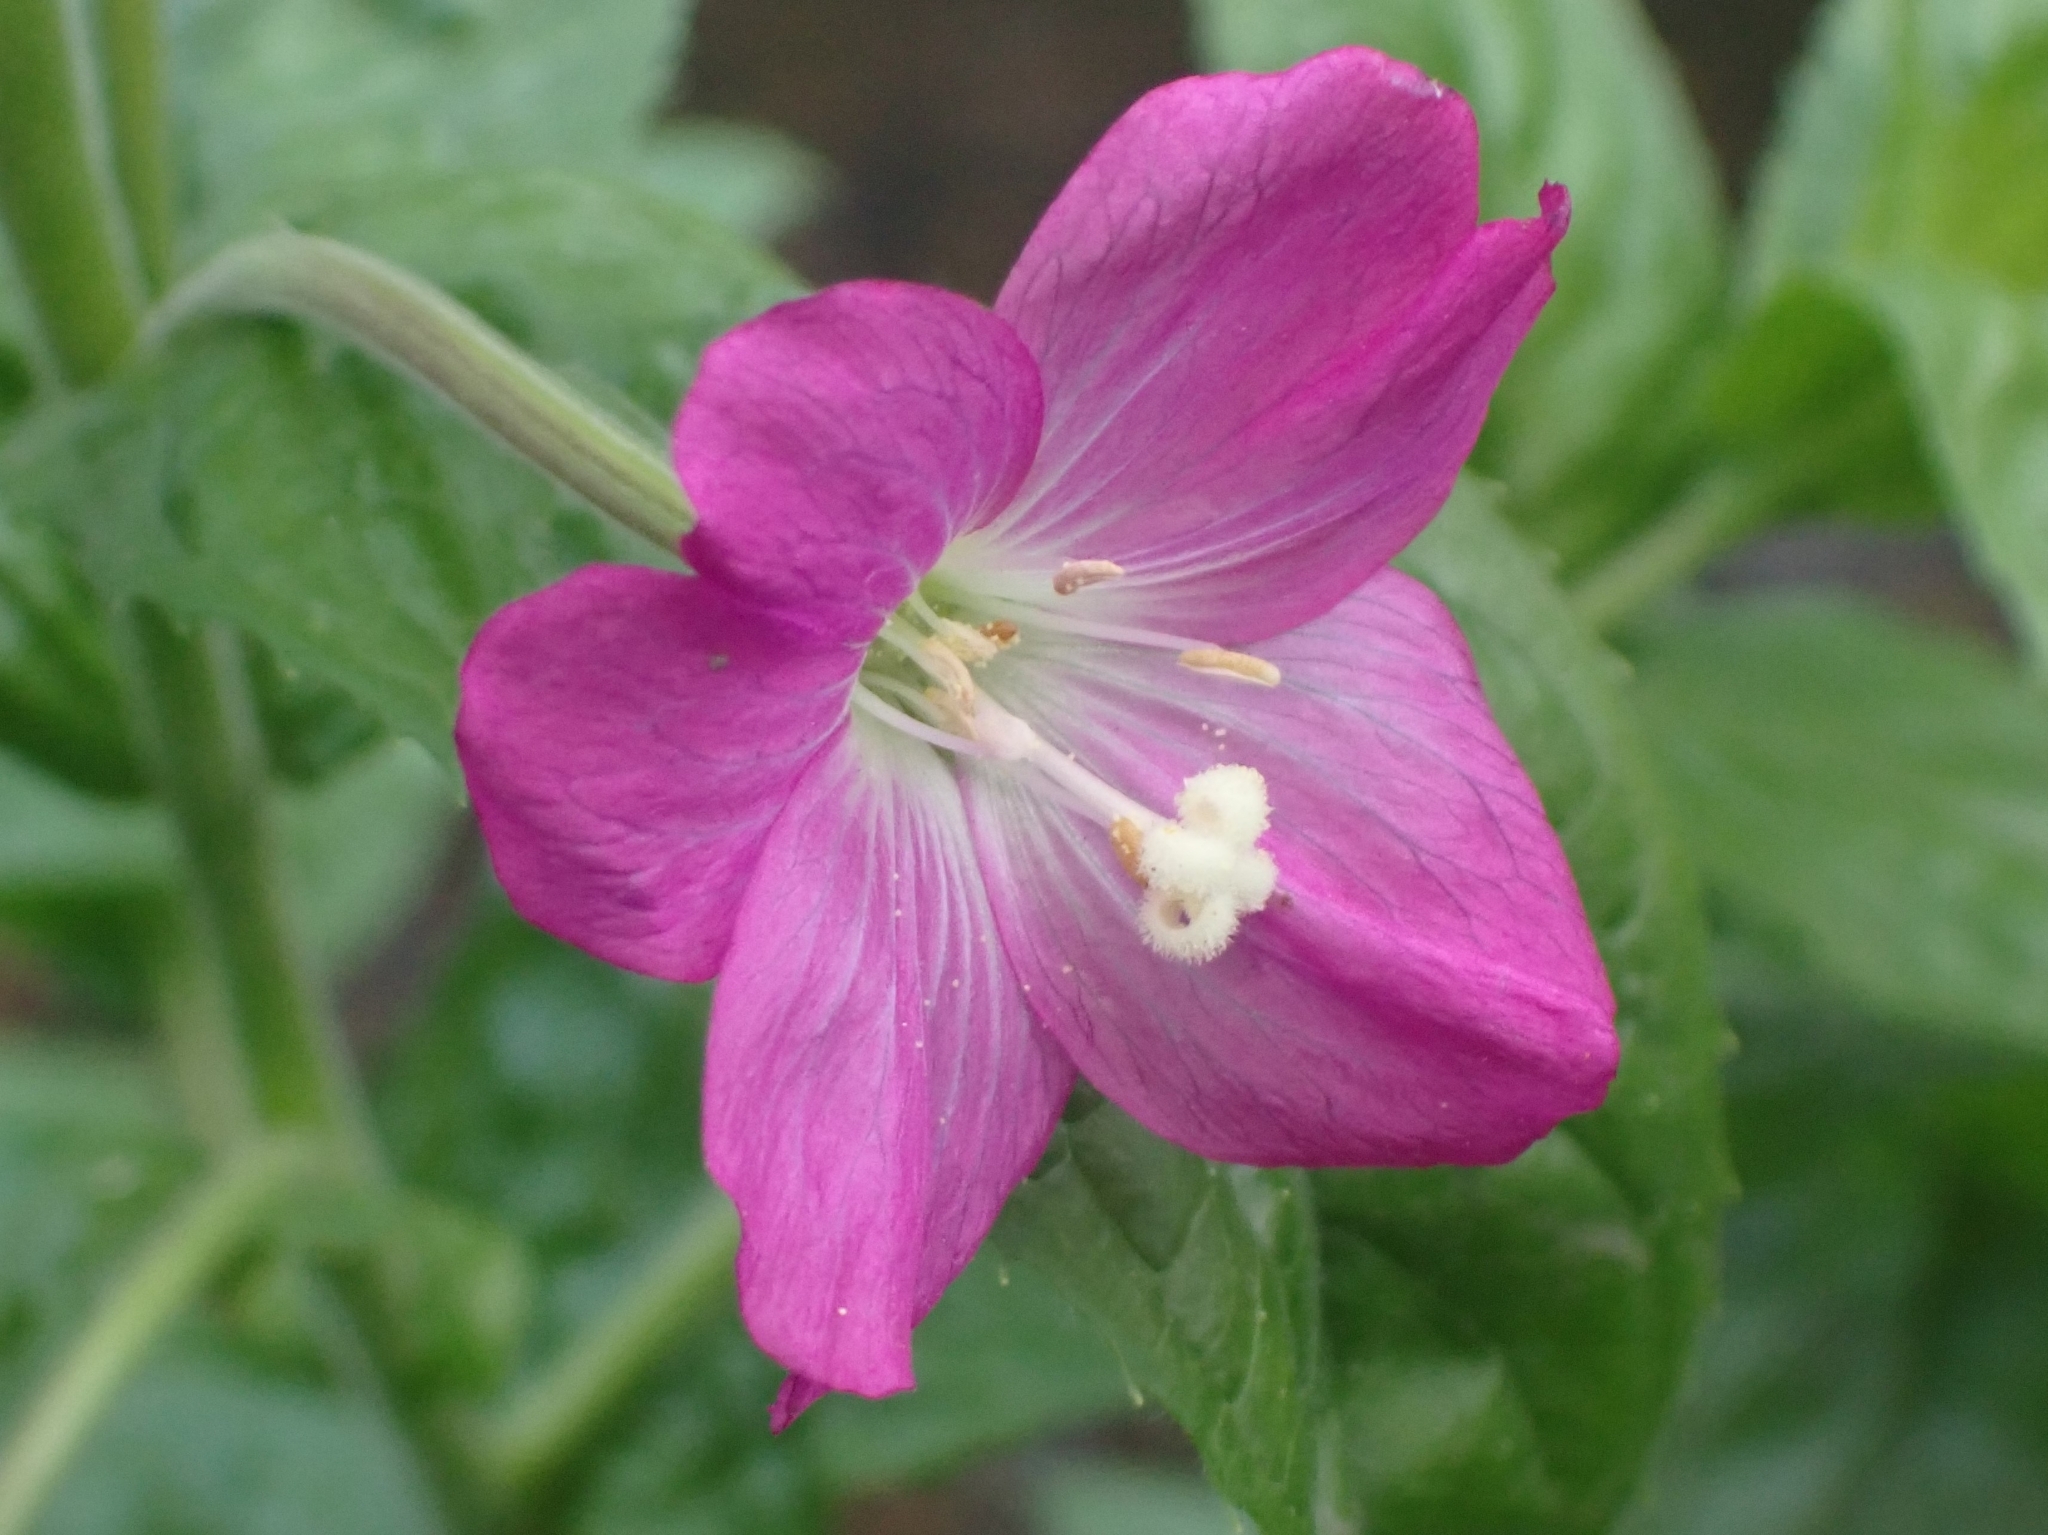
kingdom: Plantae
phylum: Tracheophyta
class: Magnoliopsida
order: Myrtales
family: Onagraceae
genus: Epilobium
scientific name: Epilobium hirsutum
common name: Great willowherb
